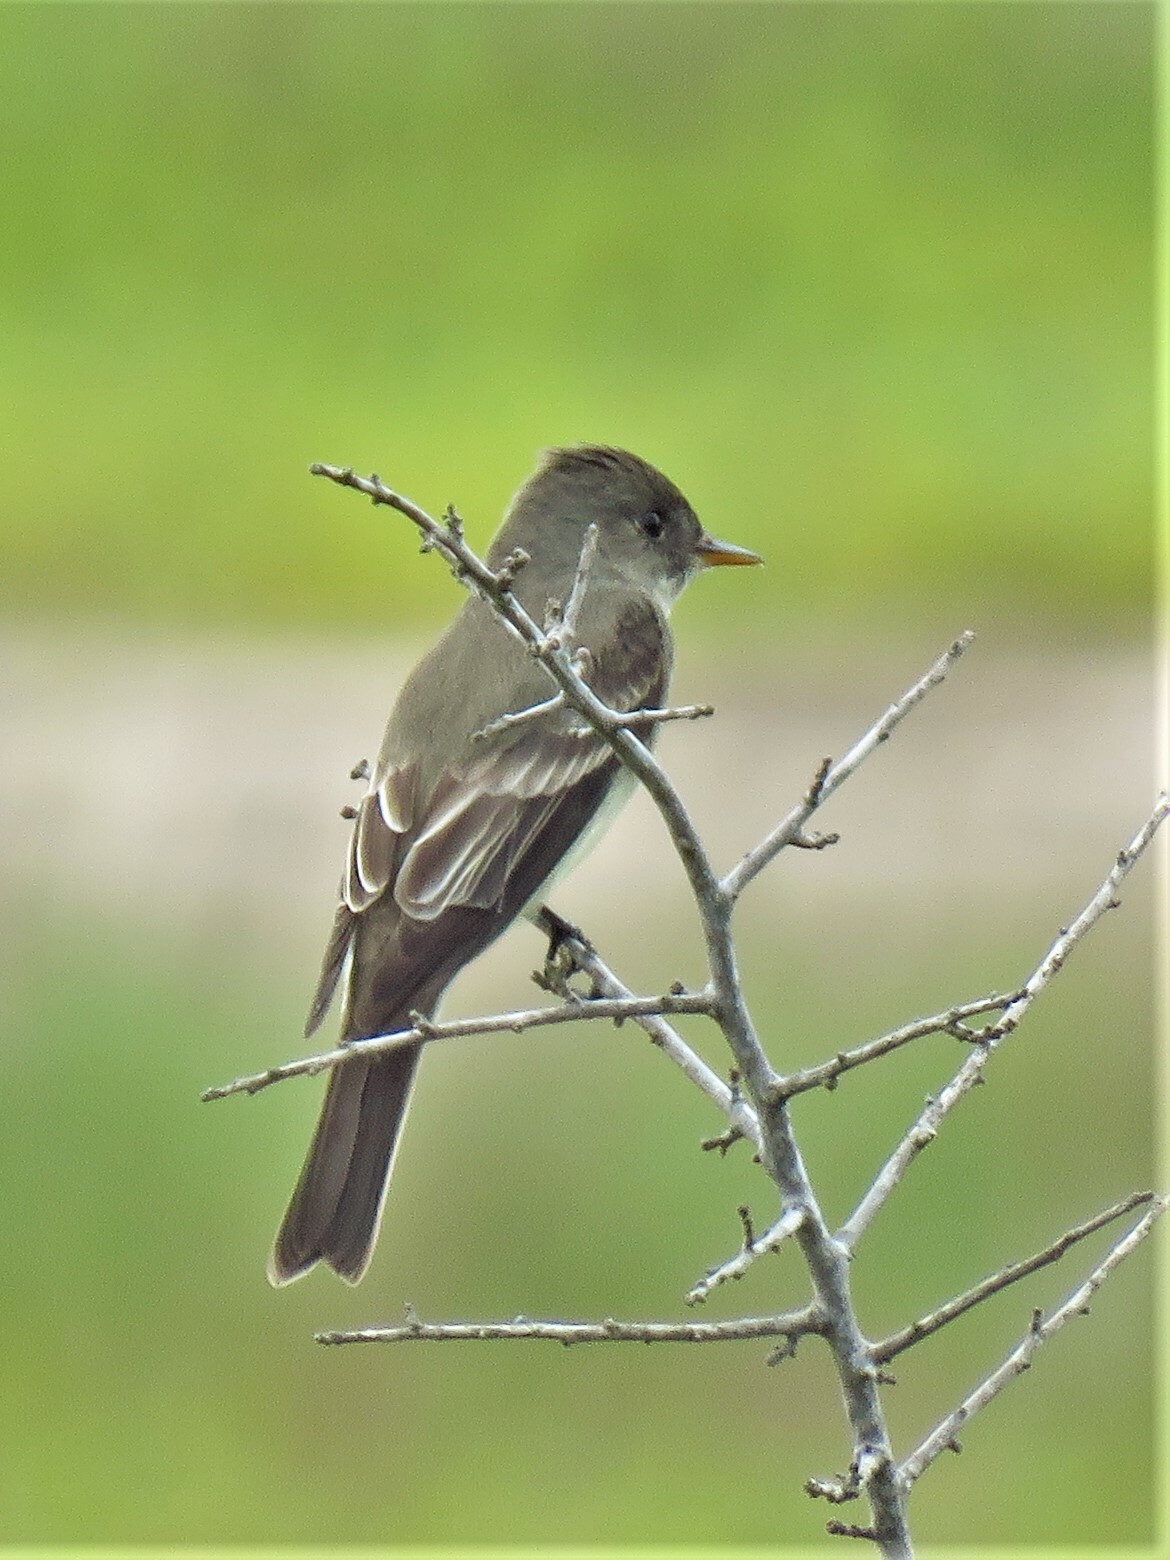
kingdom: Animalia
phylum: Chordata
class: Aves
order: Passeriformes
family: Tyrannidae
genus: Contopus
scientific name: Contopus virens
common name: Eastern wood-pewee
